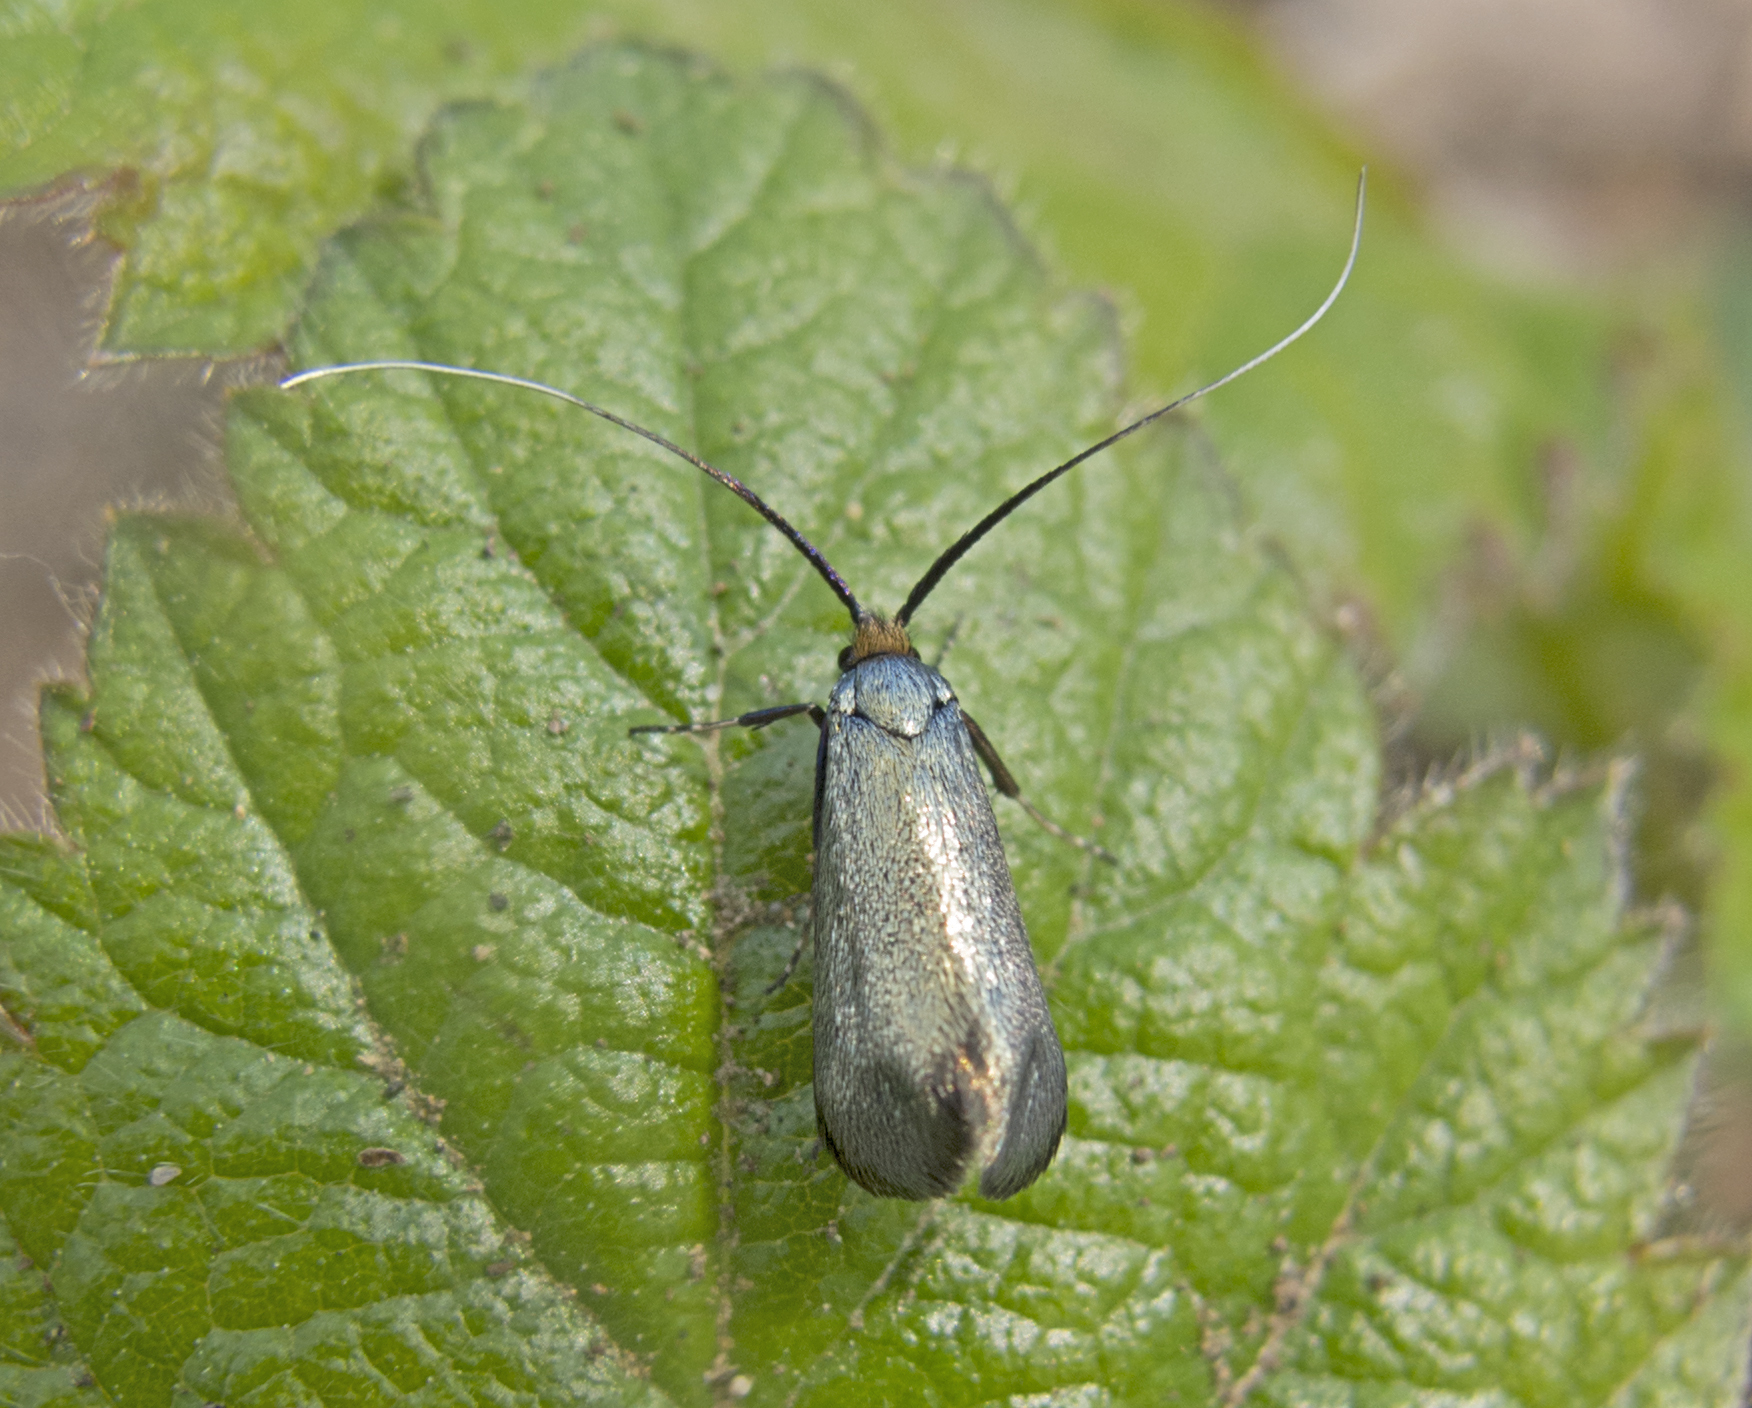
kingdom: Animalia
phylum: Arthropoda
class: Insecta
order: Lepidoptera
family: Adelidae
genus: Adela
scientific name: Adela viridella
